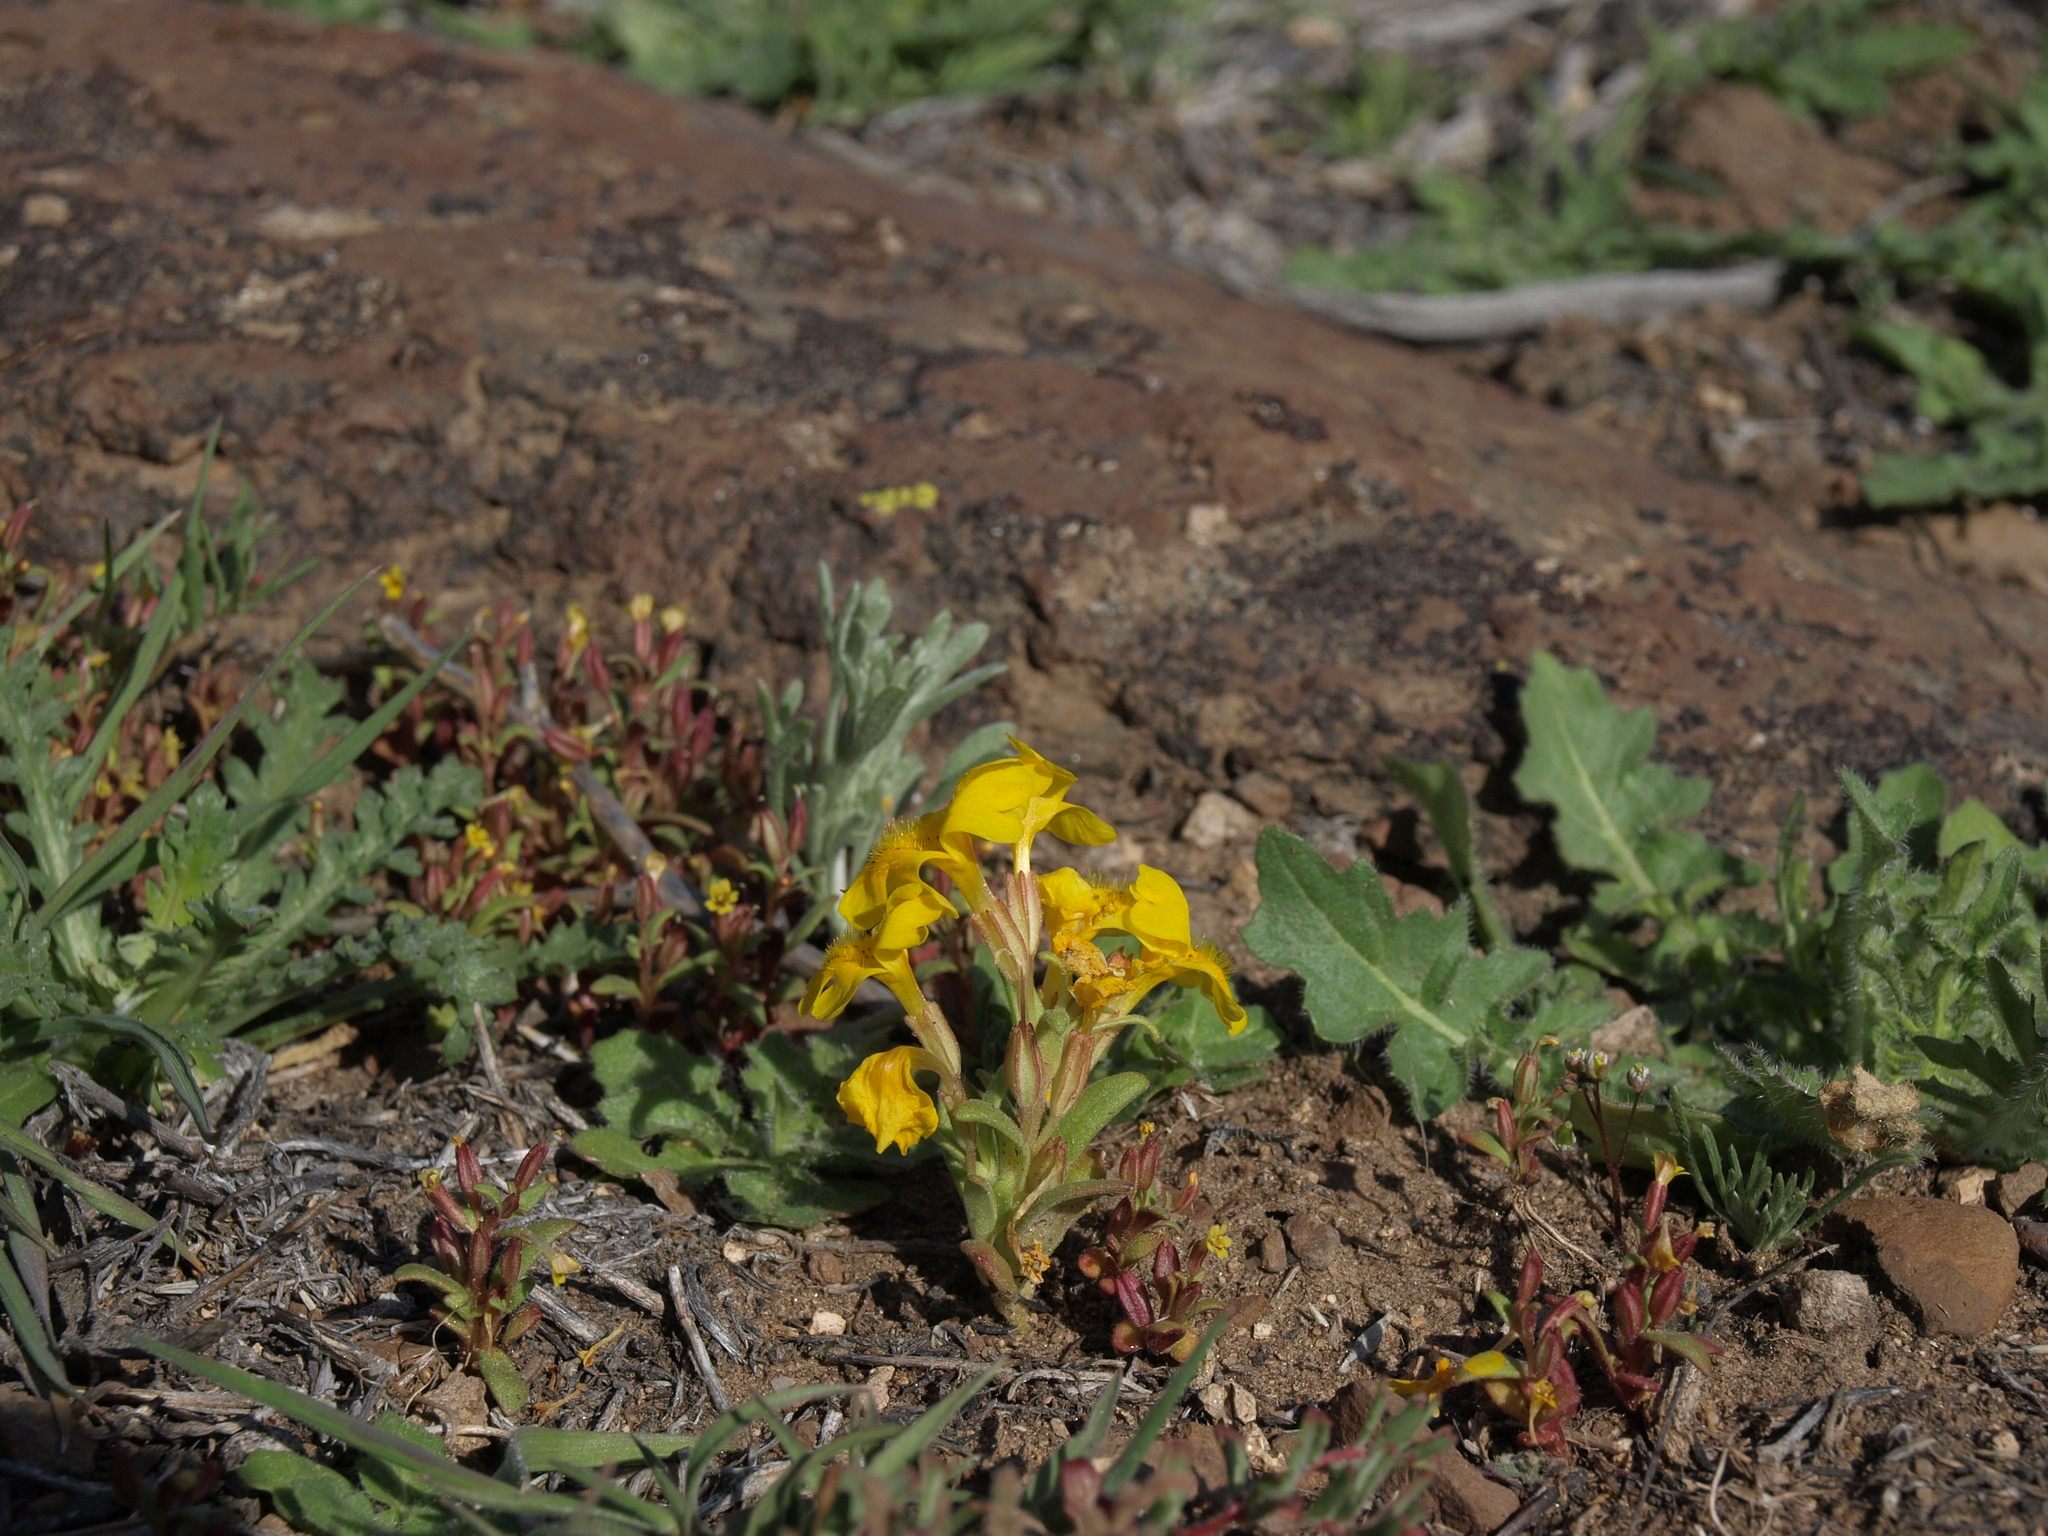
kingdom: Plantae
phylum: Tracheophyta
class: Magnoliopsida
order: Lamiales
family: Phrymaceae
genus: Erythranthe
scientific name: Erythranthe carsonensis
